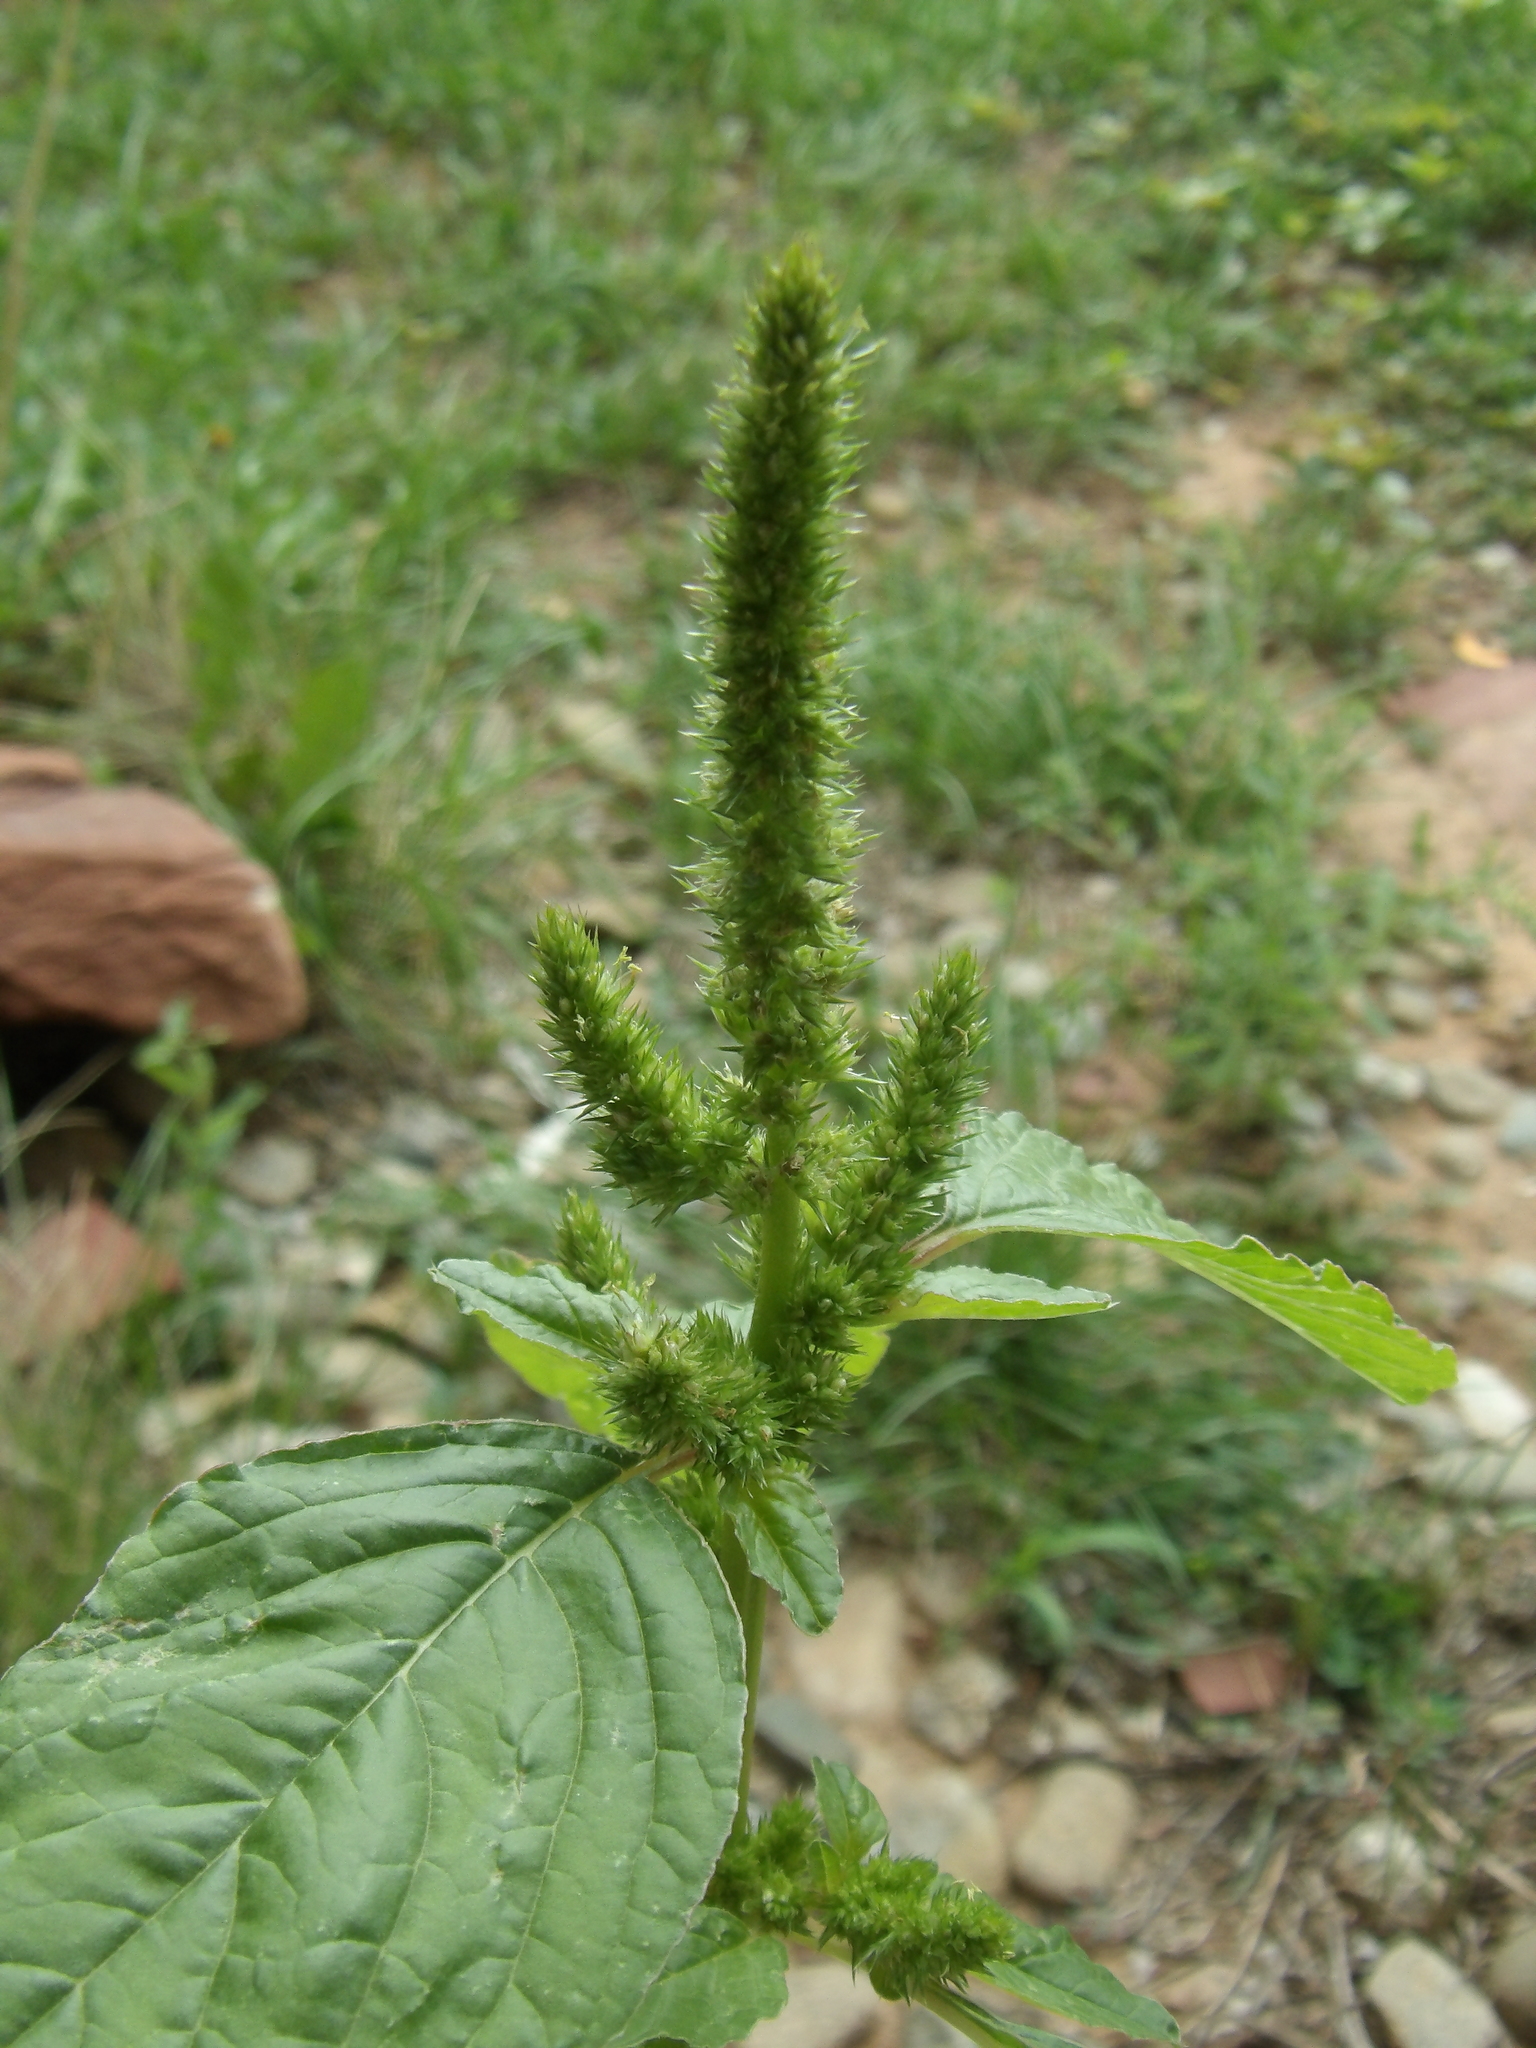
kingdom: Plantae
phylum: Tracheophyta
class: Magnoliopsida
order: Caryophyllales
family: Amaranthaceae
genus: Amaranthus
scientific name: Amaranthus palmeri
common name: Dioecious amaranth
